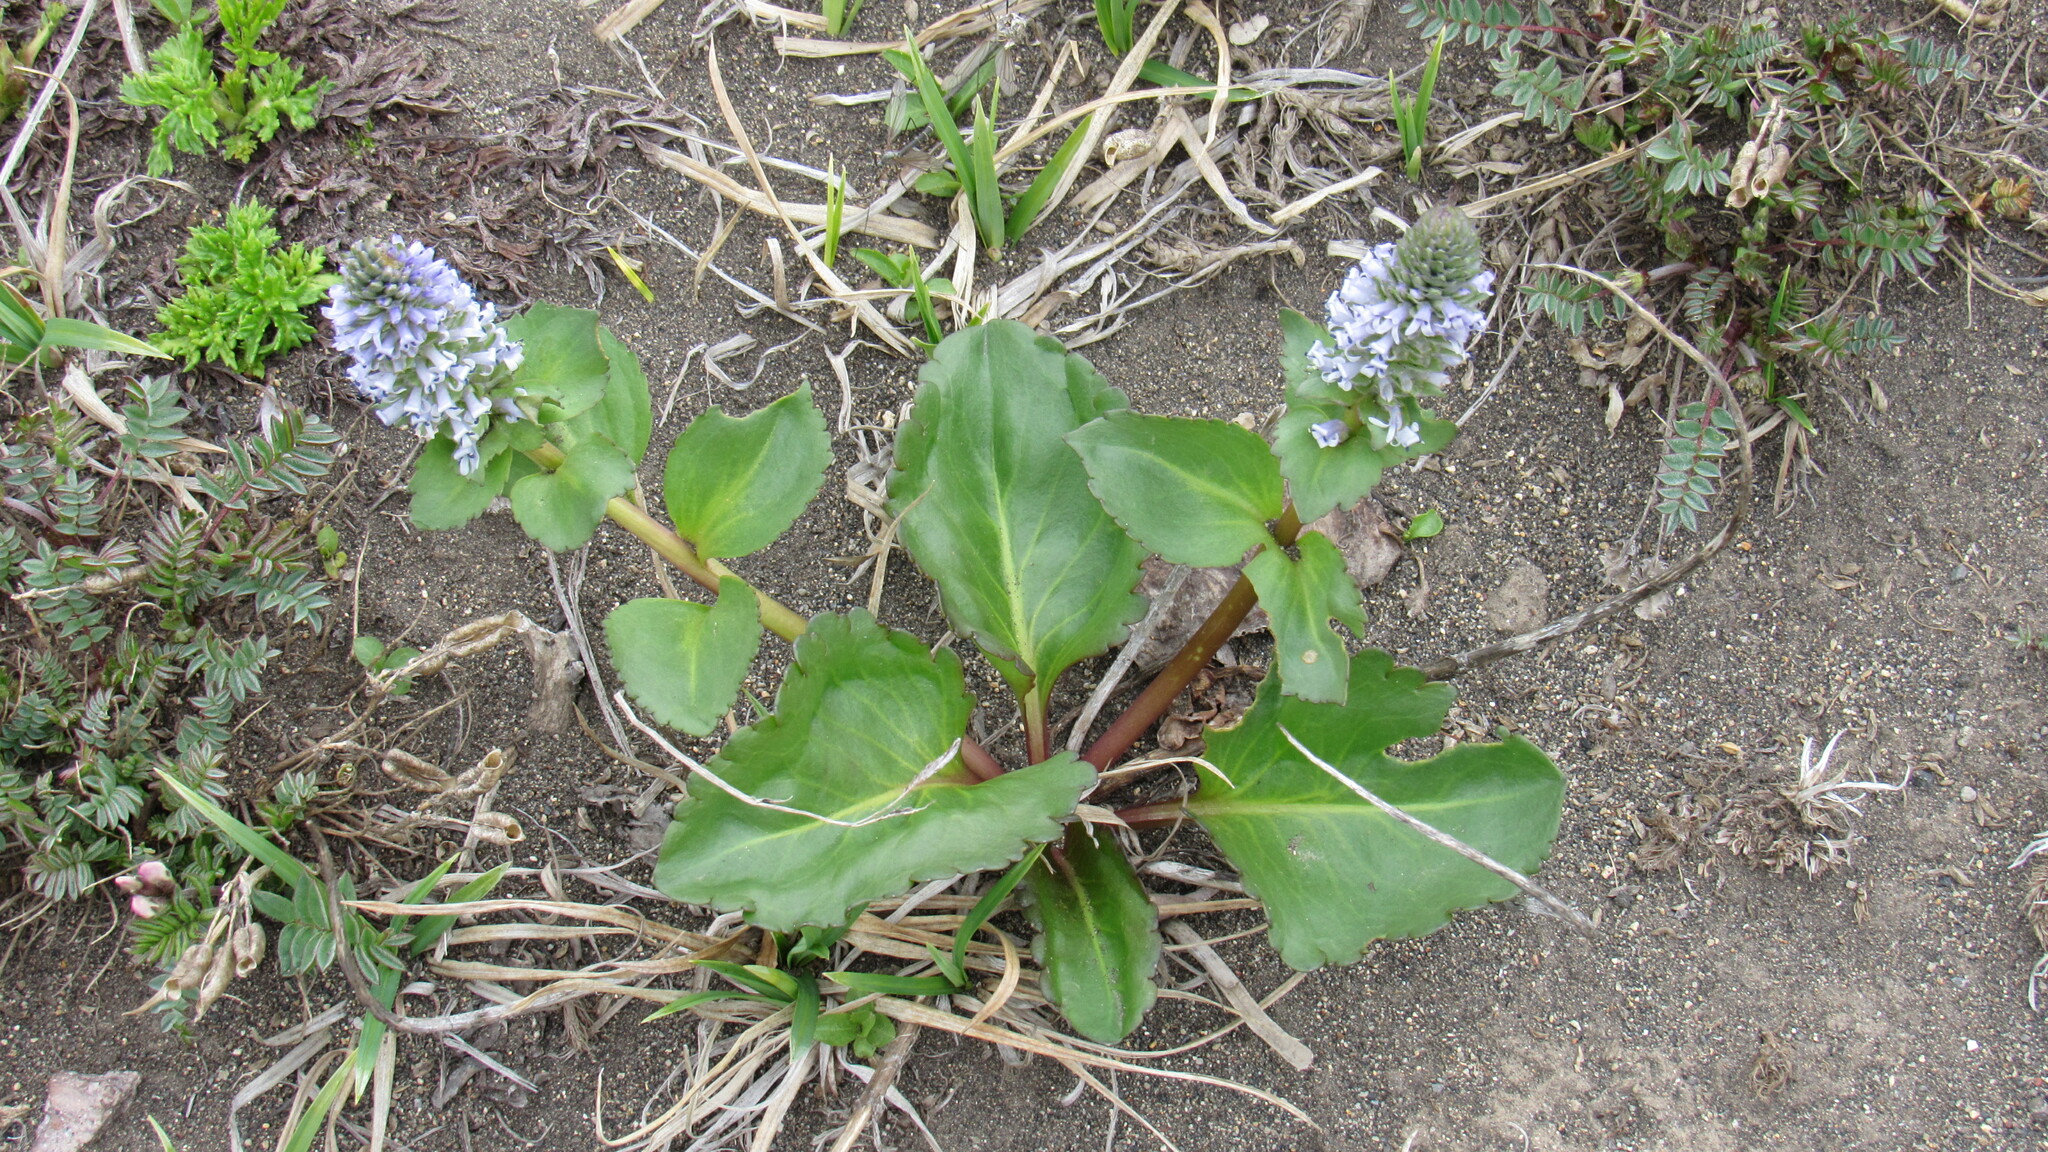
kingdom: Plantae
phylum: Tracheophyta
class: Magnoliopsida
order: Lamiales
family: Plantaginaceae
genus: Lagotis
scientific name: Lagotis glauca
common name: Glaucous weaselsnout
